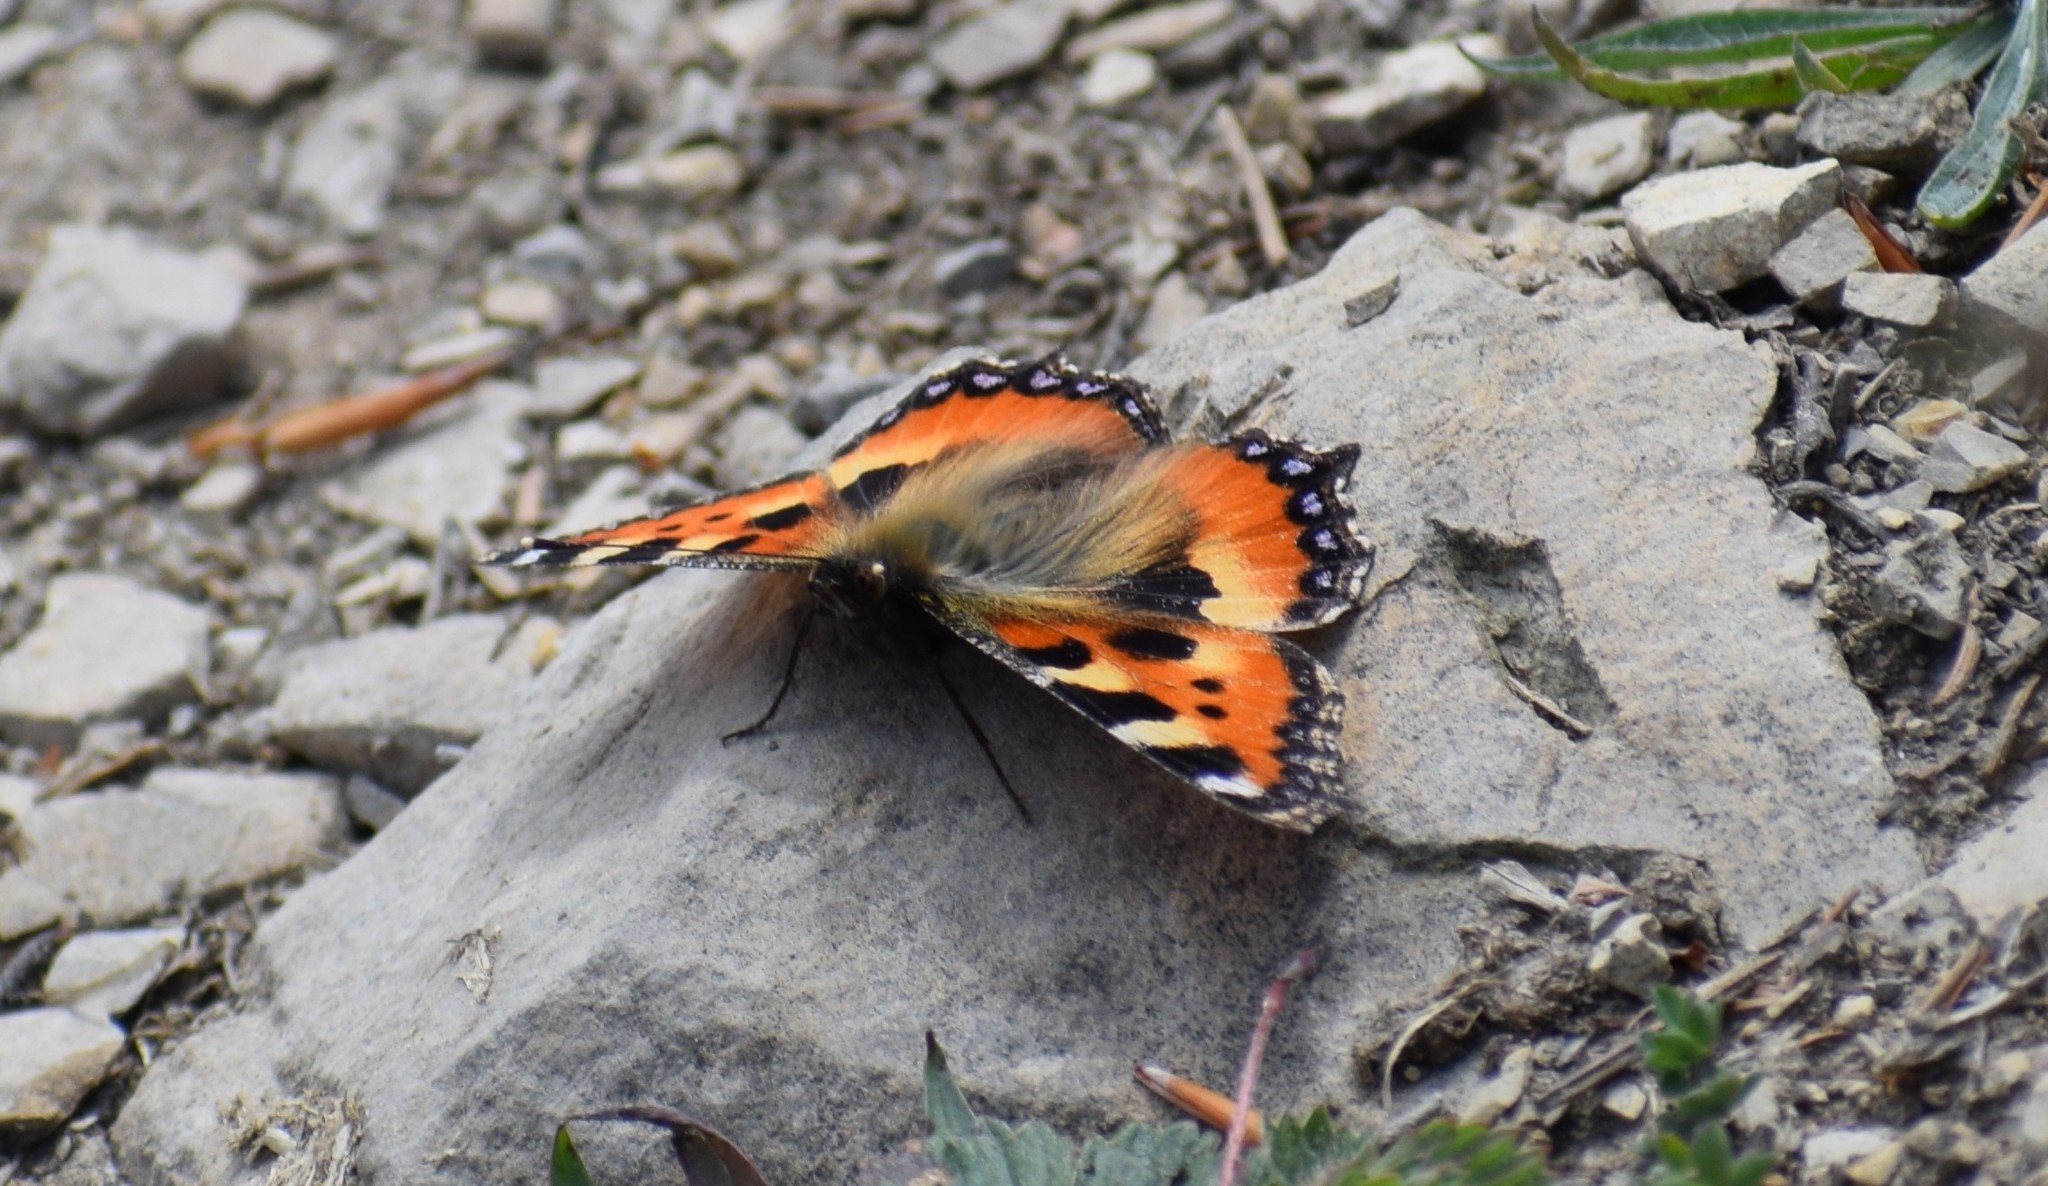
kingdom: Animalia
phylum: Arthropoda
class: Insecta
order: Lepidoptera
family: Nymphalidae
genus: Aglais
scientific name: Aglais urticae
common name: Small tortoiseshell
